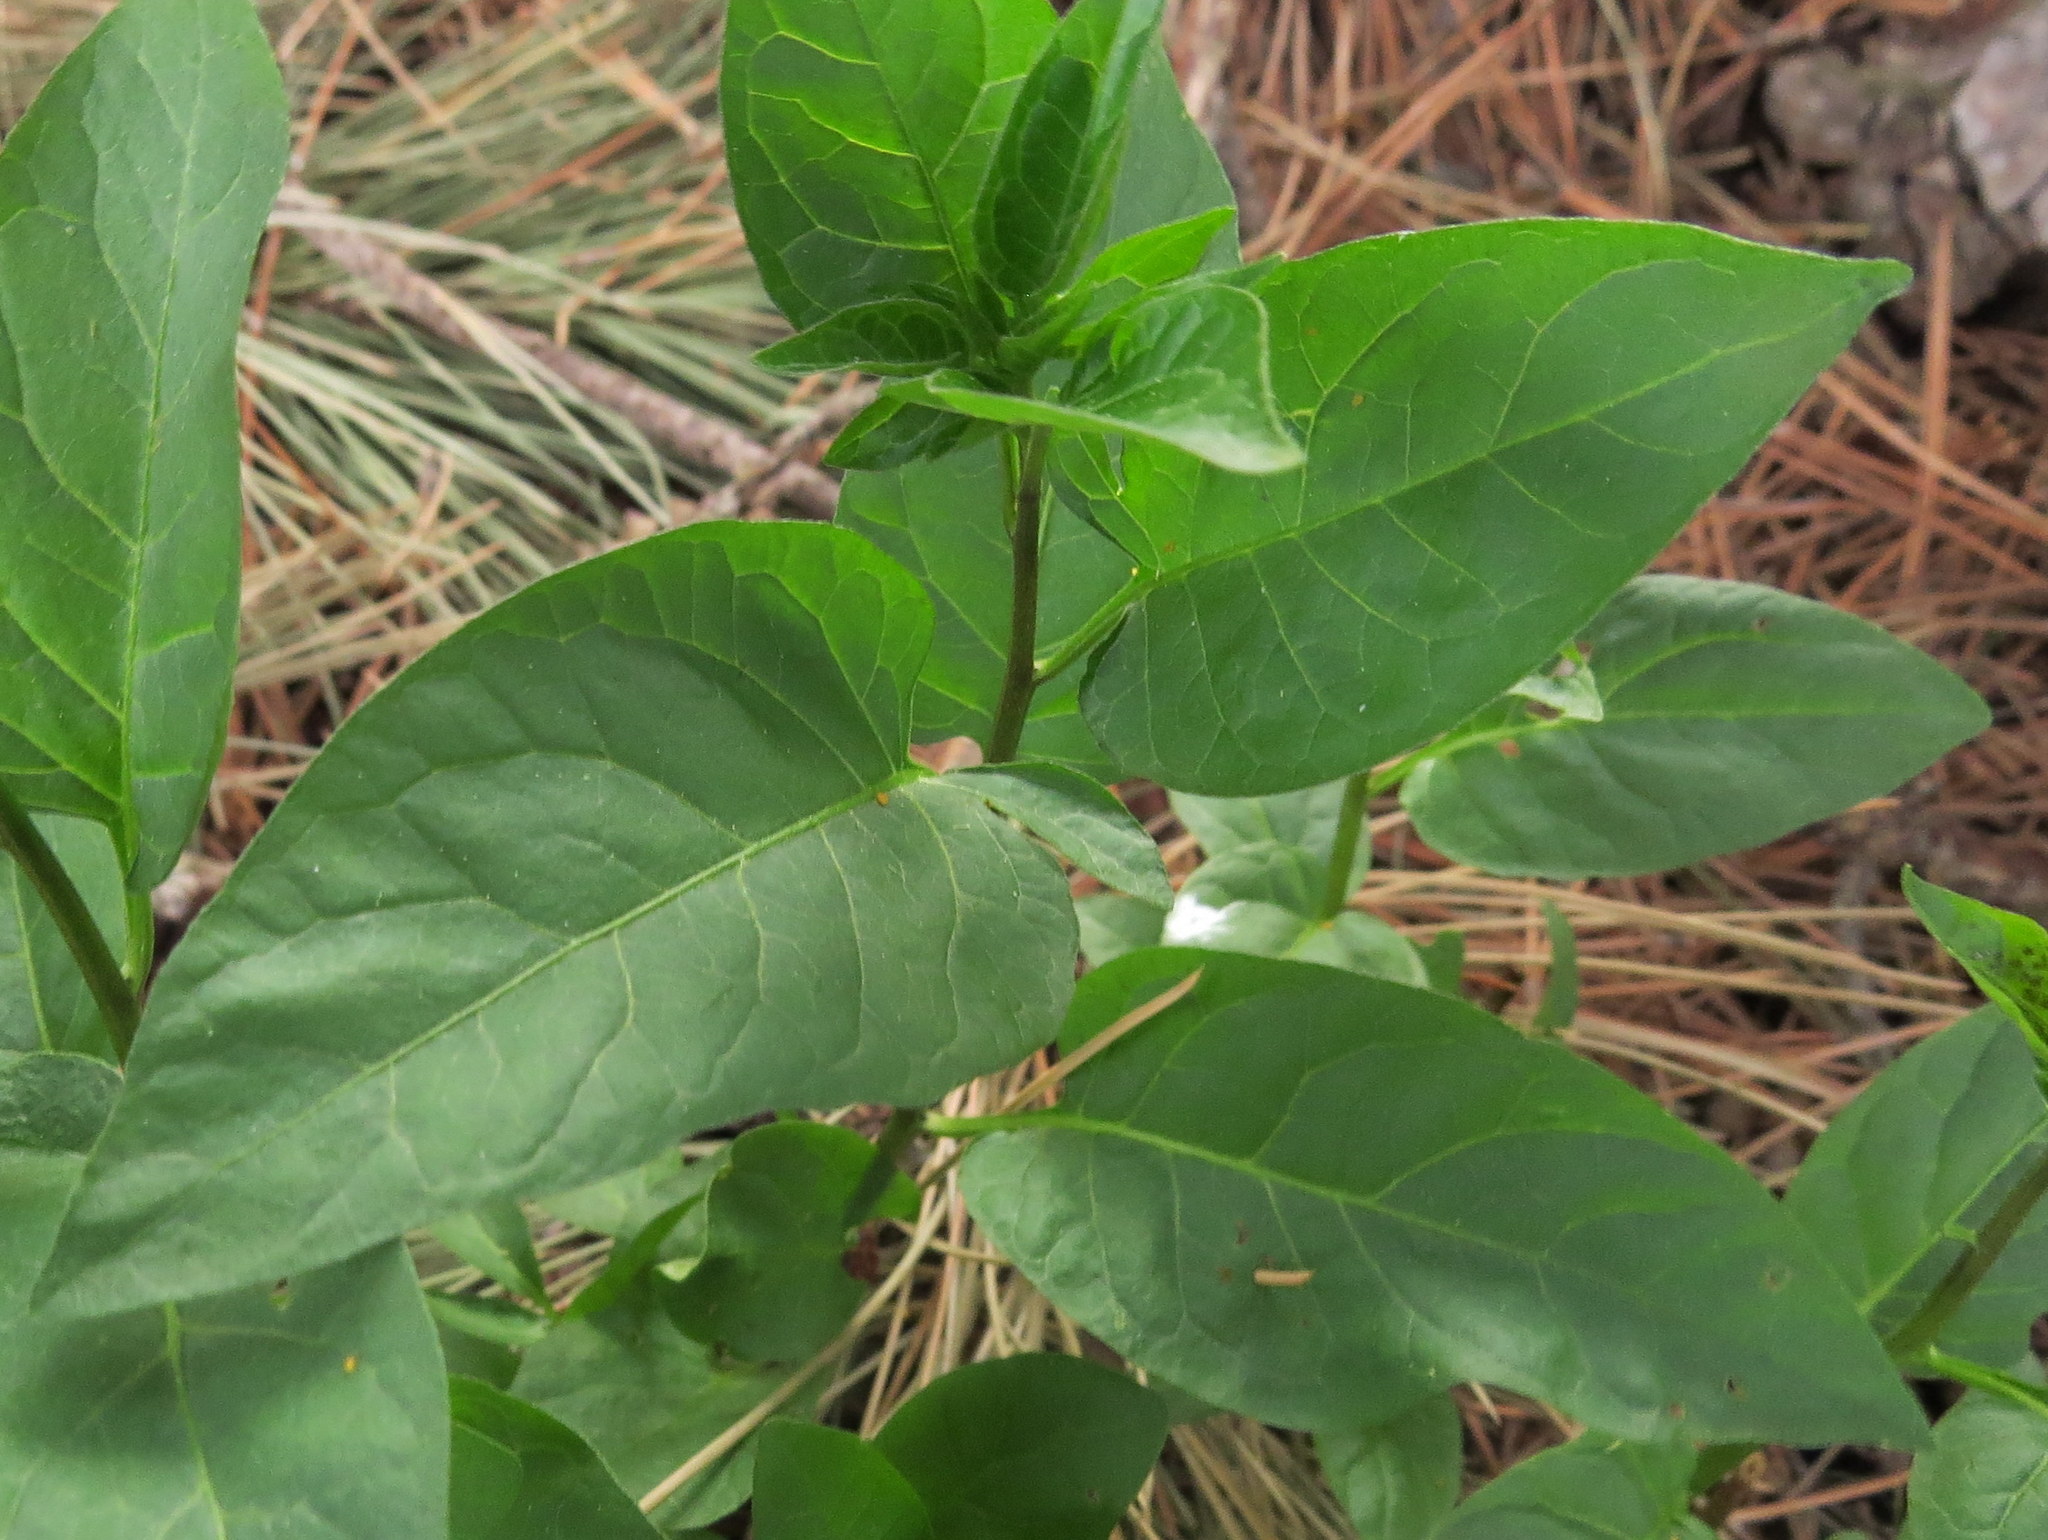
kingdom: Plantae
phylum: Tracheophyta
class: Magnoliopsida
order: Solanales
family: Solanaceae
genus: Solanum
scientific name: Solanum dulcamara
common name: Climbing nightshade
